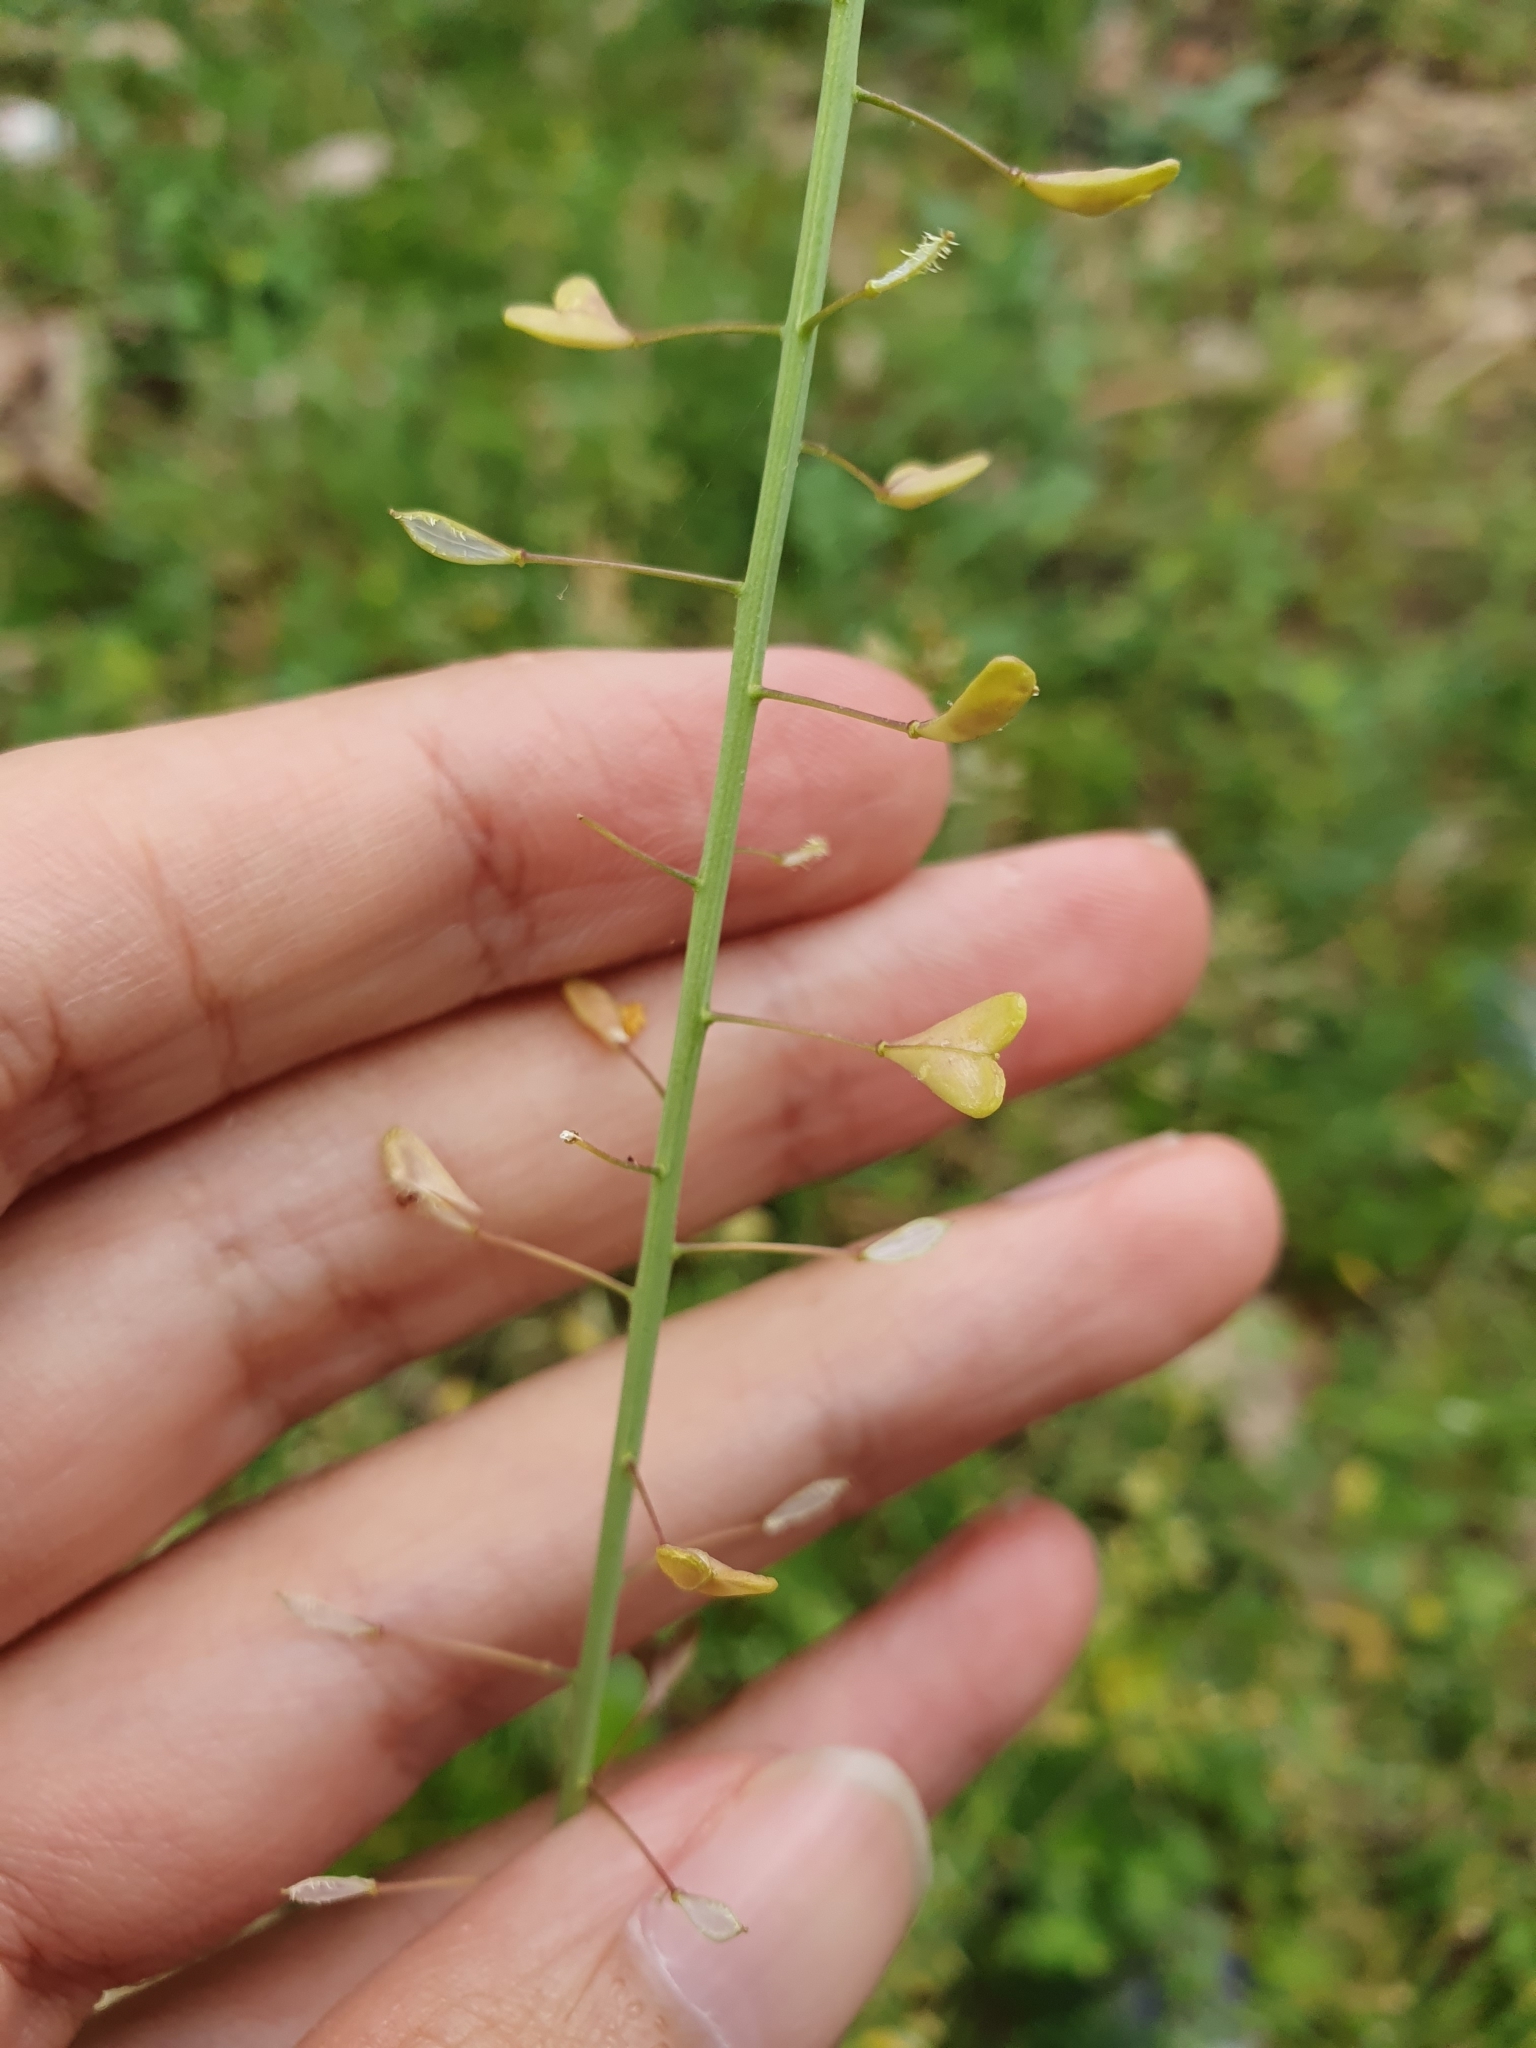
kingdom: Plantae
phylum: Tracheophyta
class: Magnoliopsida
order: Brassicales
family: Brassicaceae
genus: Capsella
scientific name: Capsella bursa-pastoris
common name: Shepherd's purse
